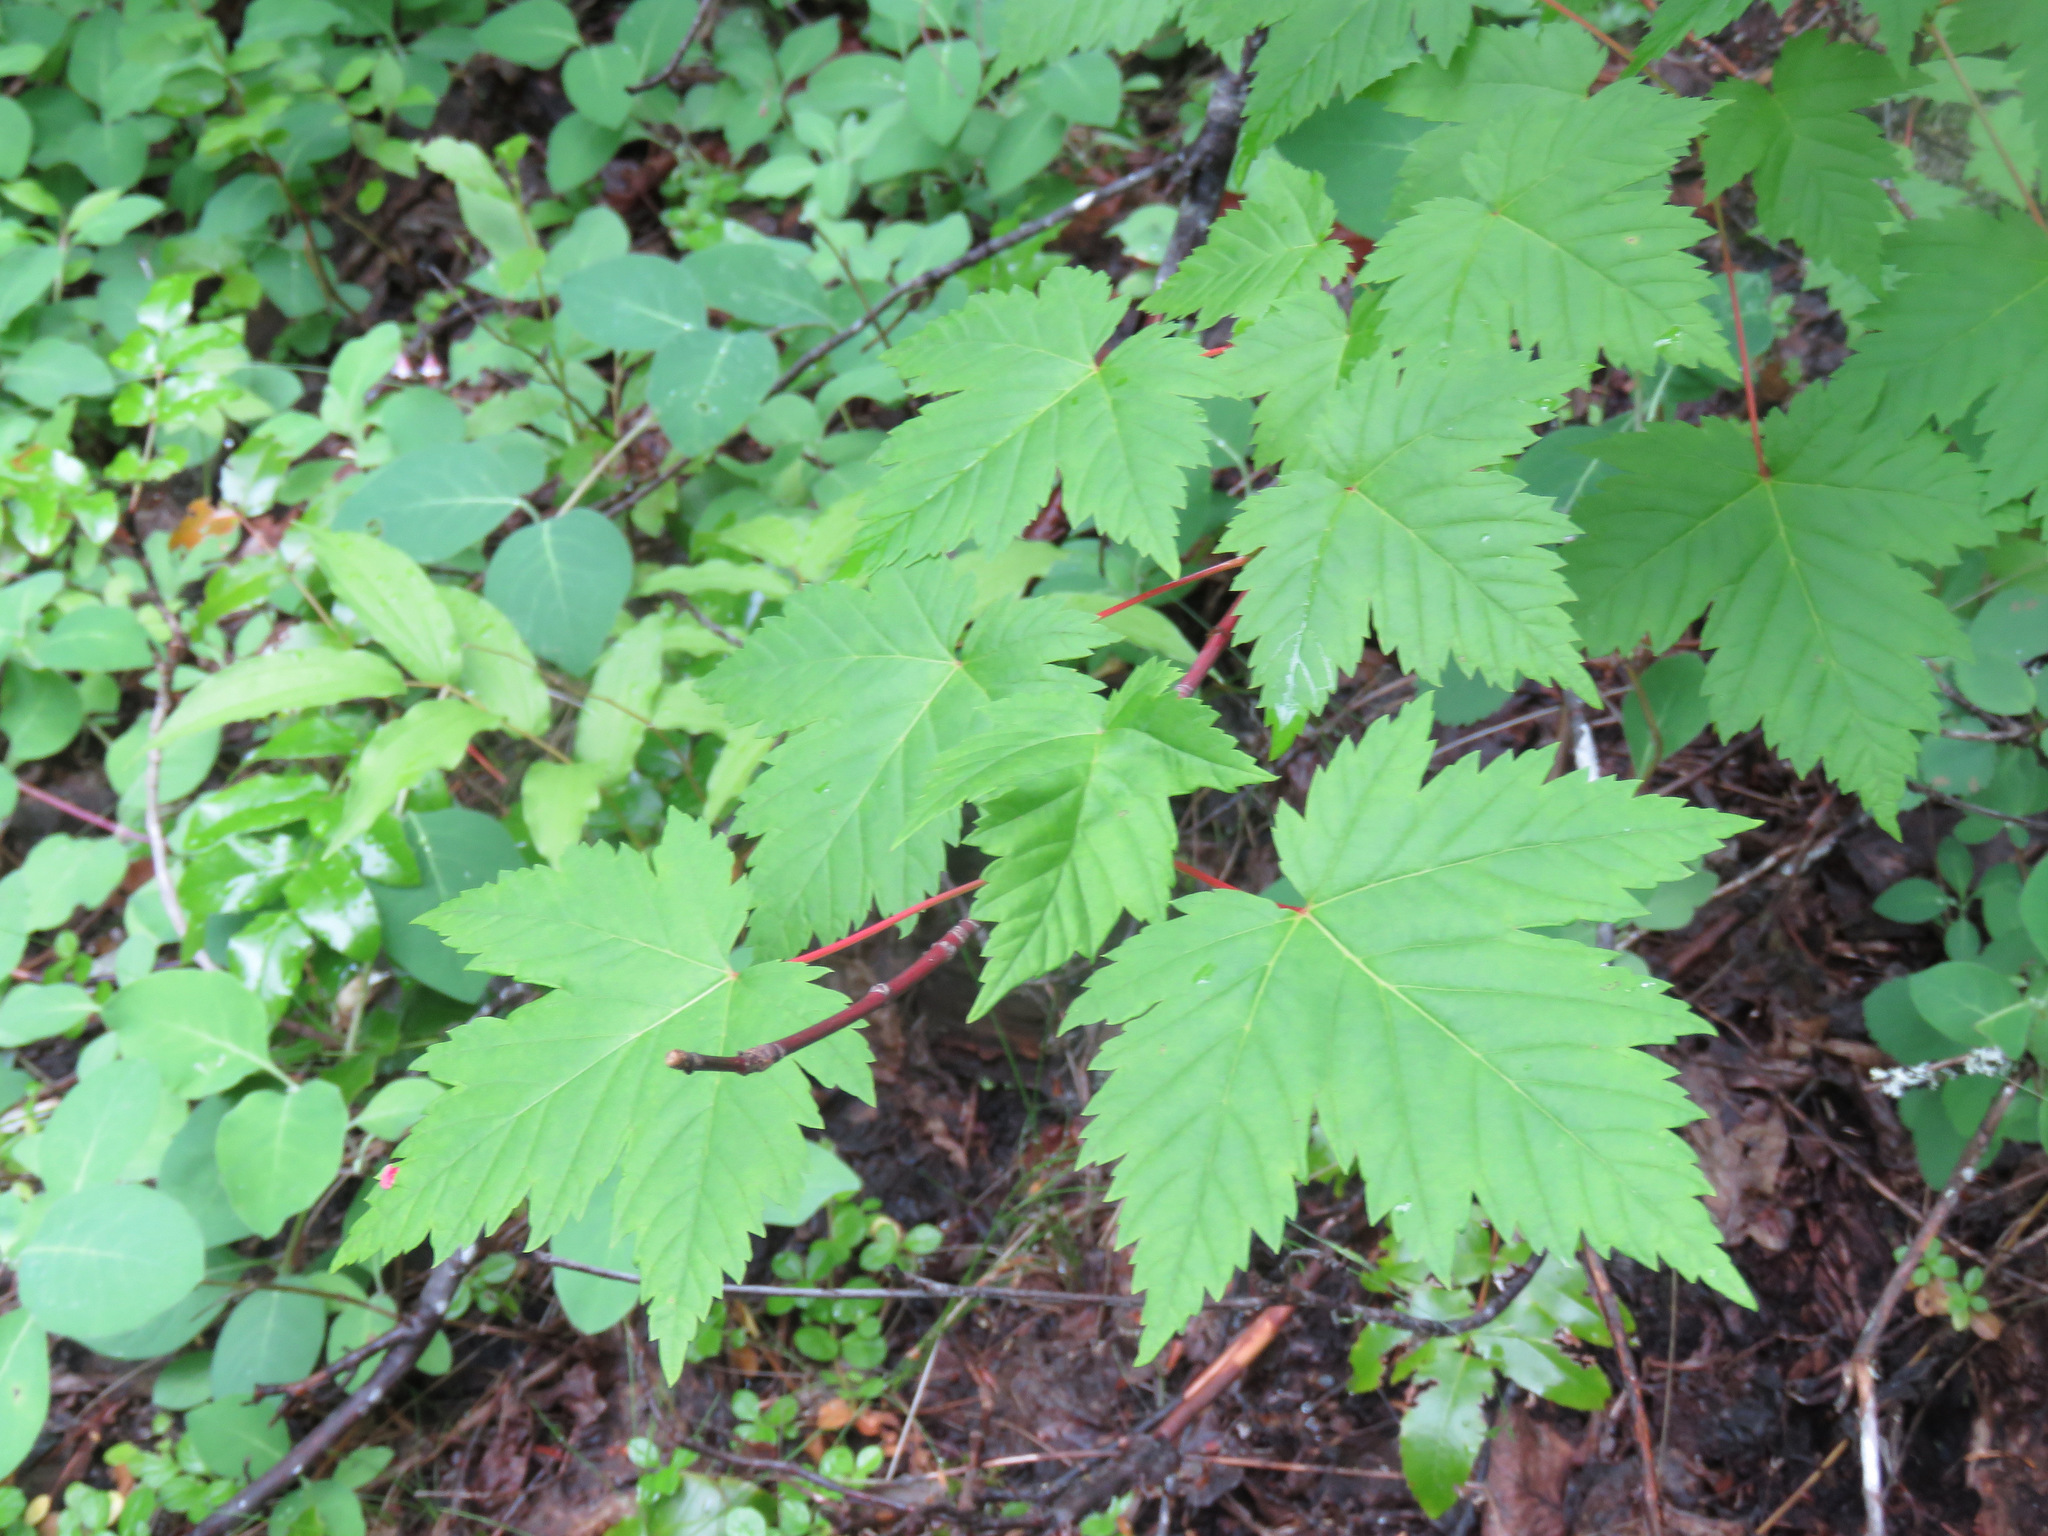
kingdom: Plantae
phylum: Tracheophyta
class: Magnoliopsida
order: Sapindales
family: Sapindaceae
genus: Acer
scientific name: Acer glabrum
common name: Rocky mountain maple
